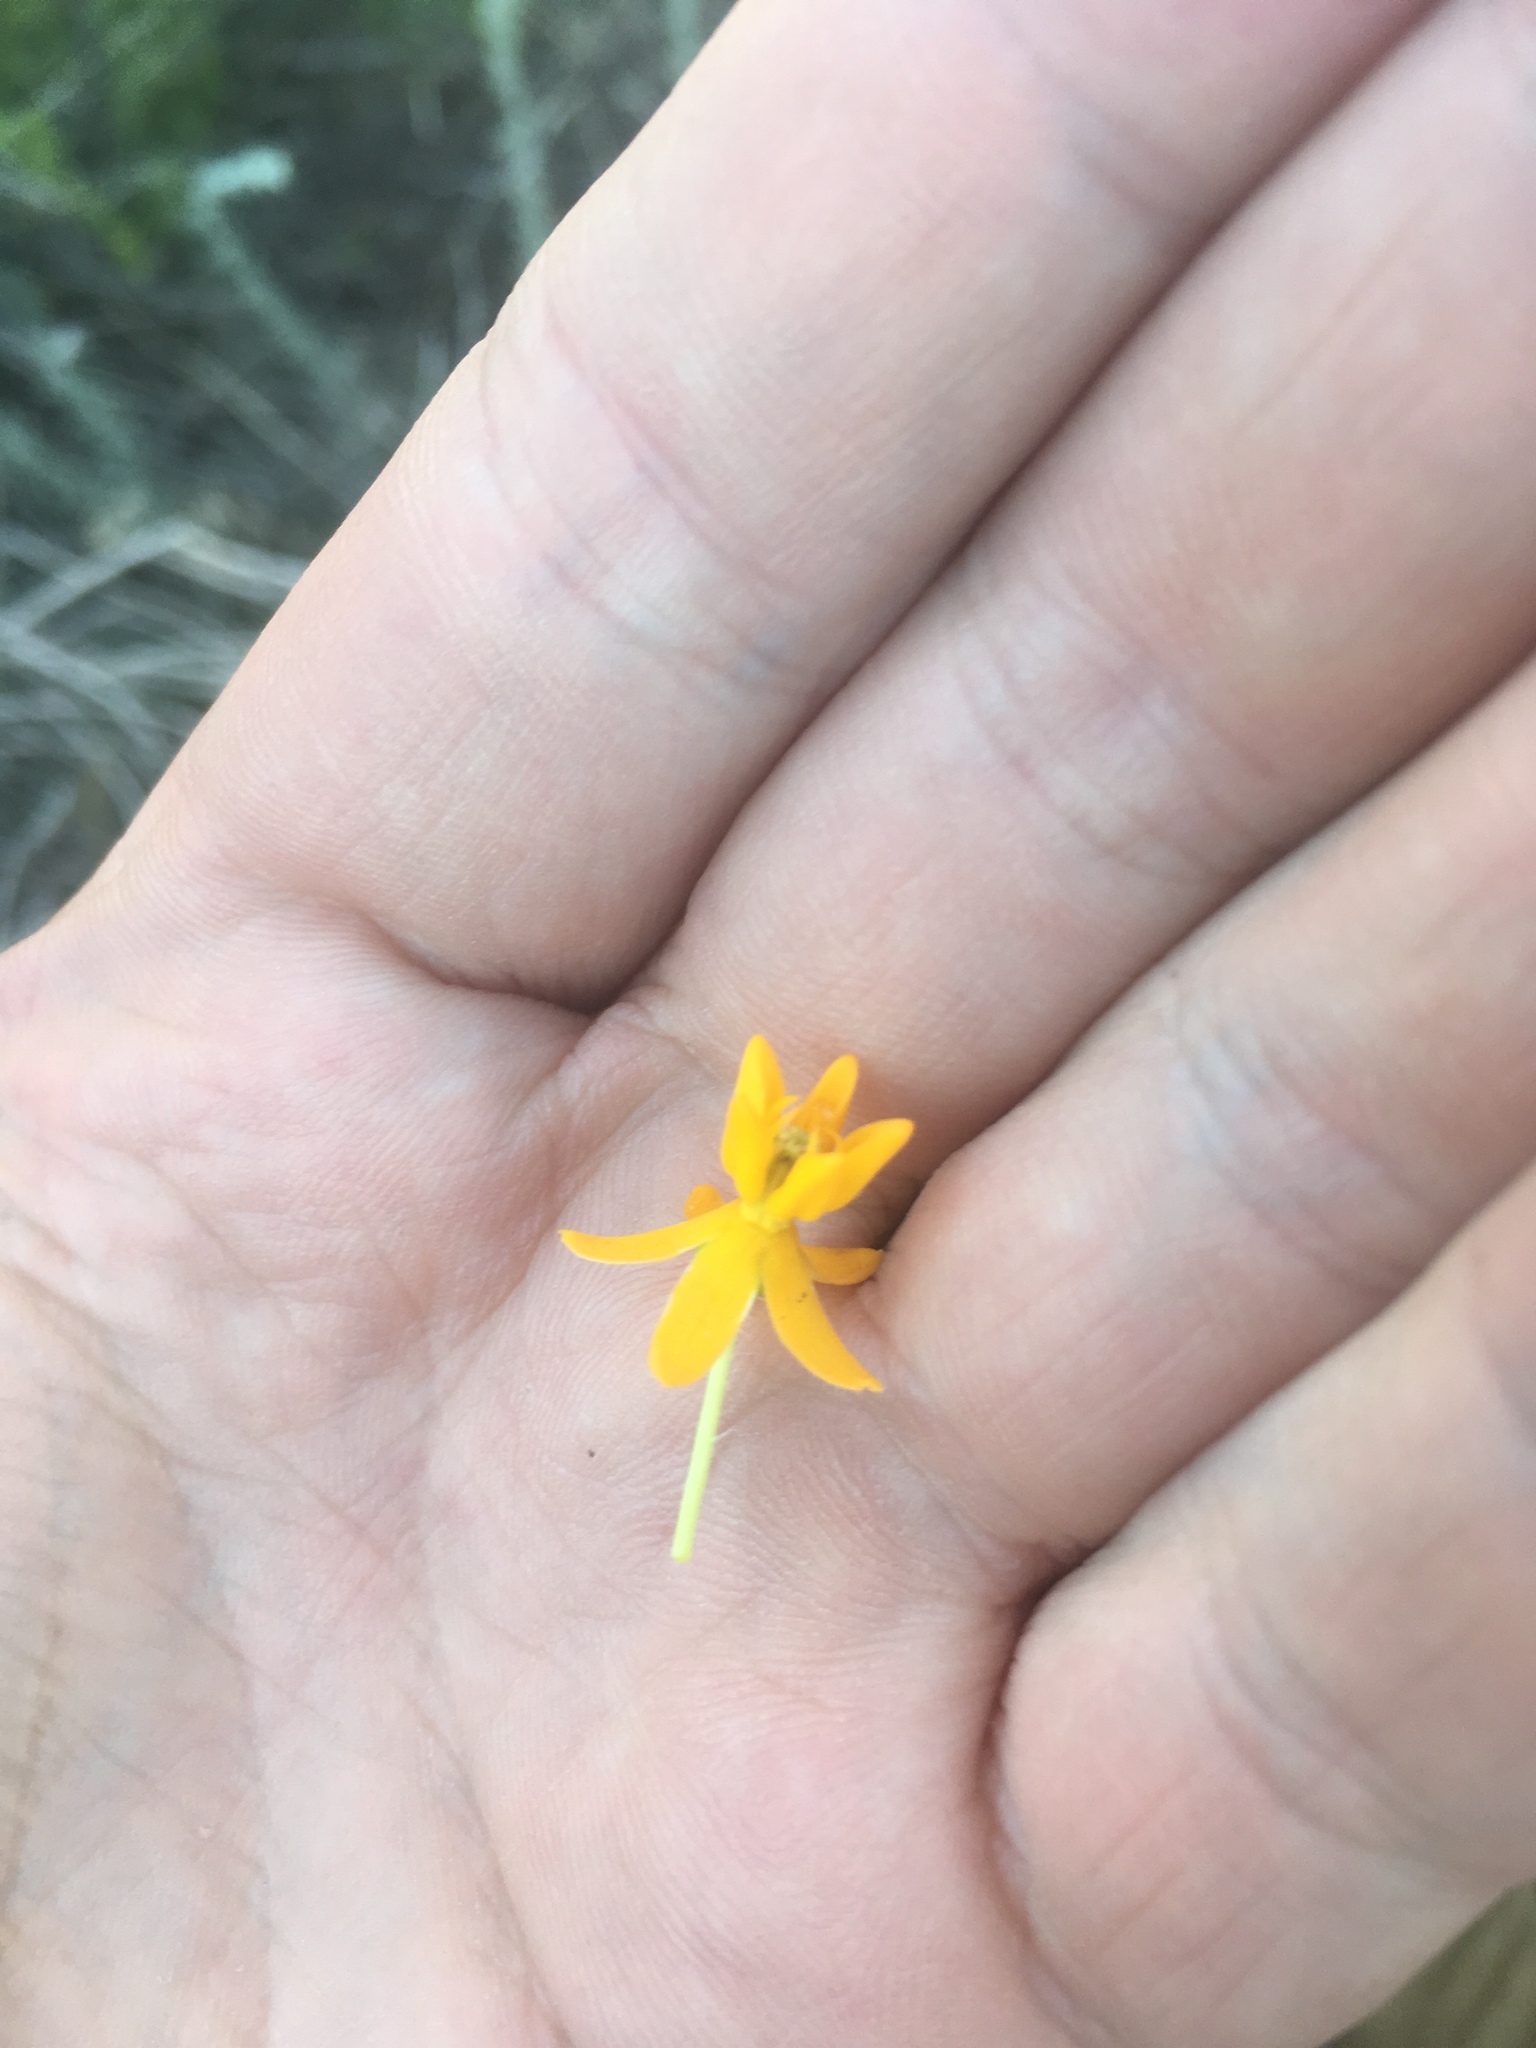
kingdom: Plantae
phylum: Tracheophyta
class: Magnoliopsida
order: Gentianales
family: Apocynaceae
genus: Asclepias
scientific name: Asclepias tuberosa
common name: Butterfly milkweed
